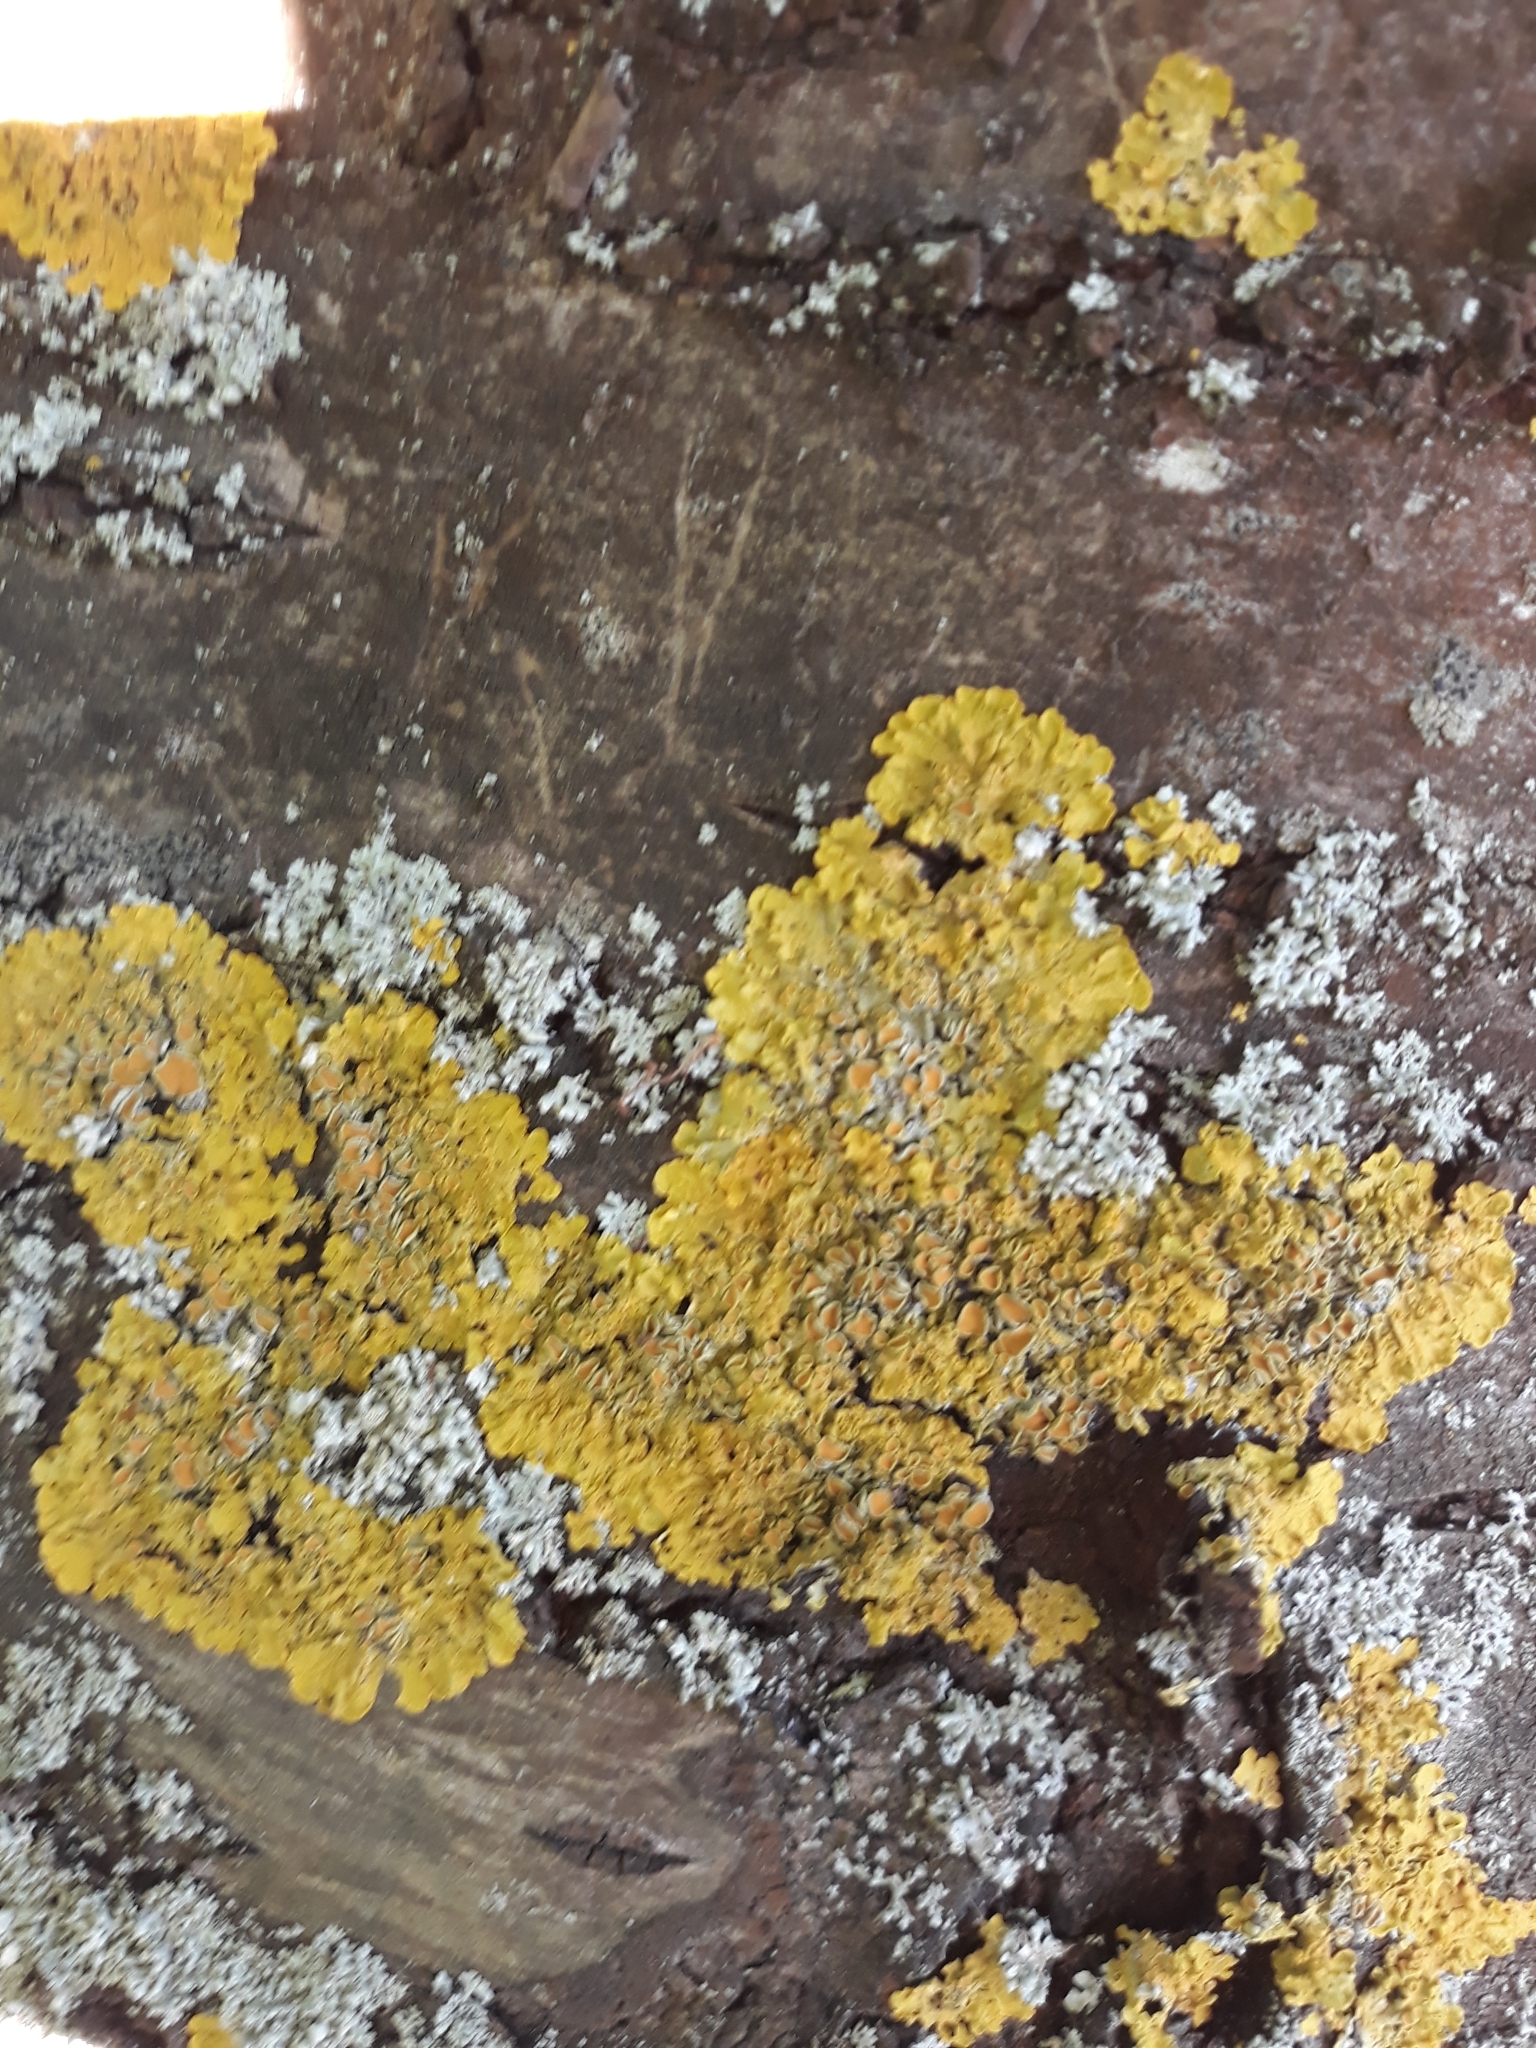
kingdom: Fungi
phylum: Ascomycota
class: Lecanoromycetes
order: Teloschistales
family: Teloschistaceae
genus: Xanthoria
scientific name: Xanthoria parietina
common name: Common orange lichen
